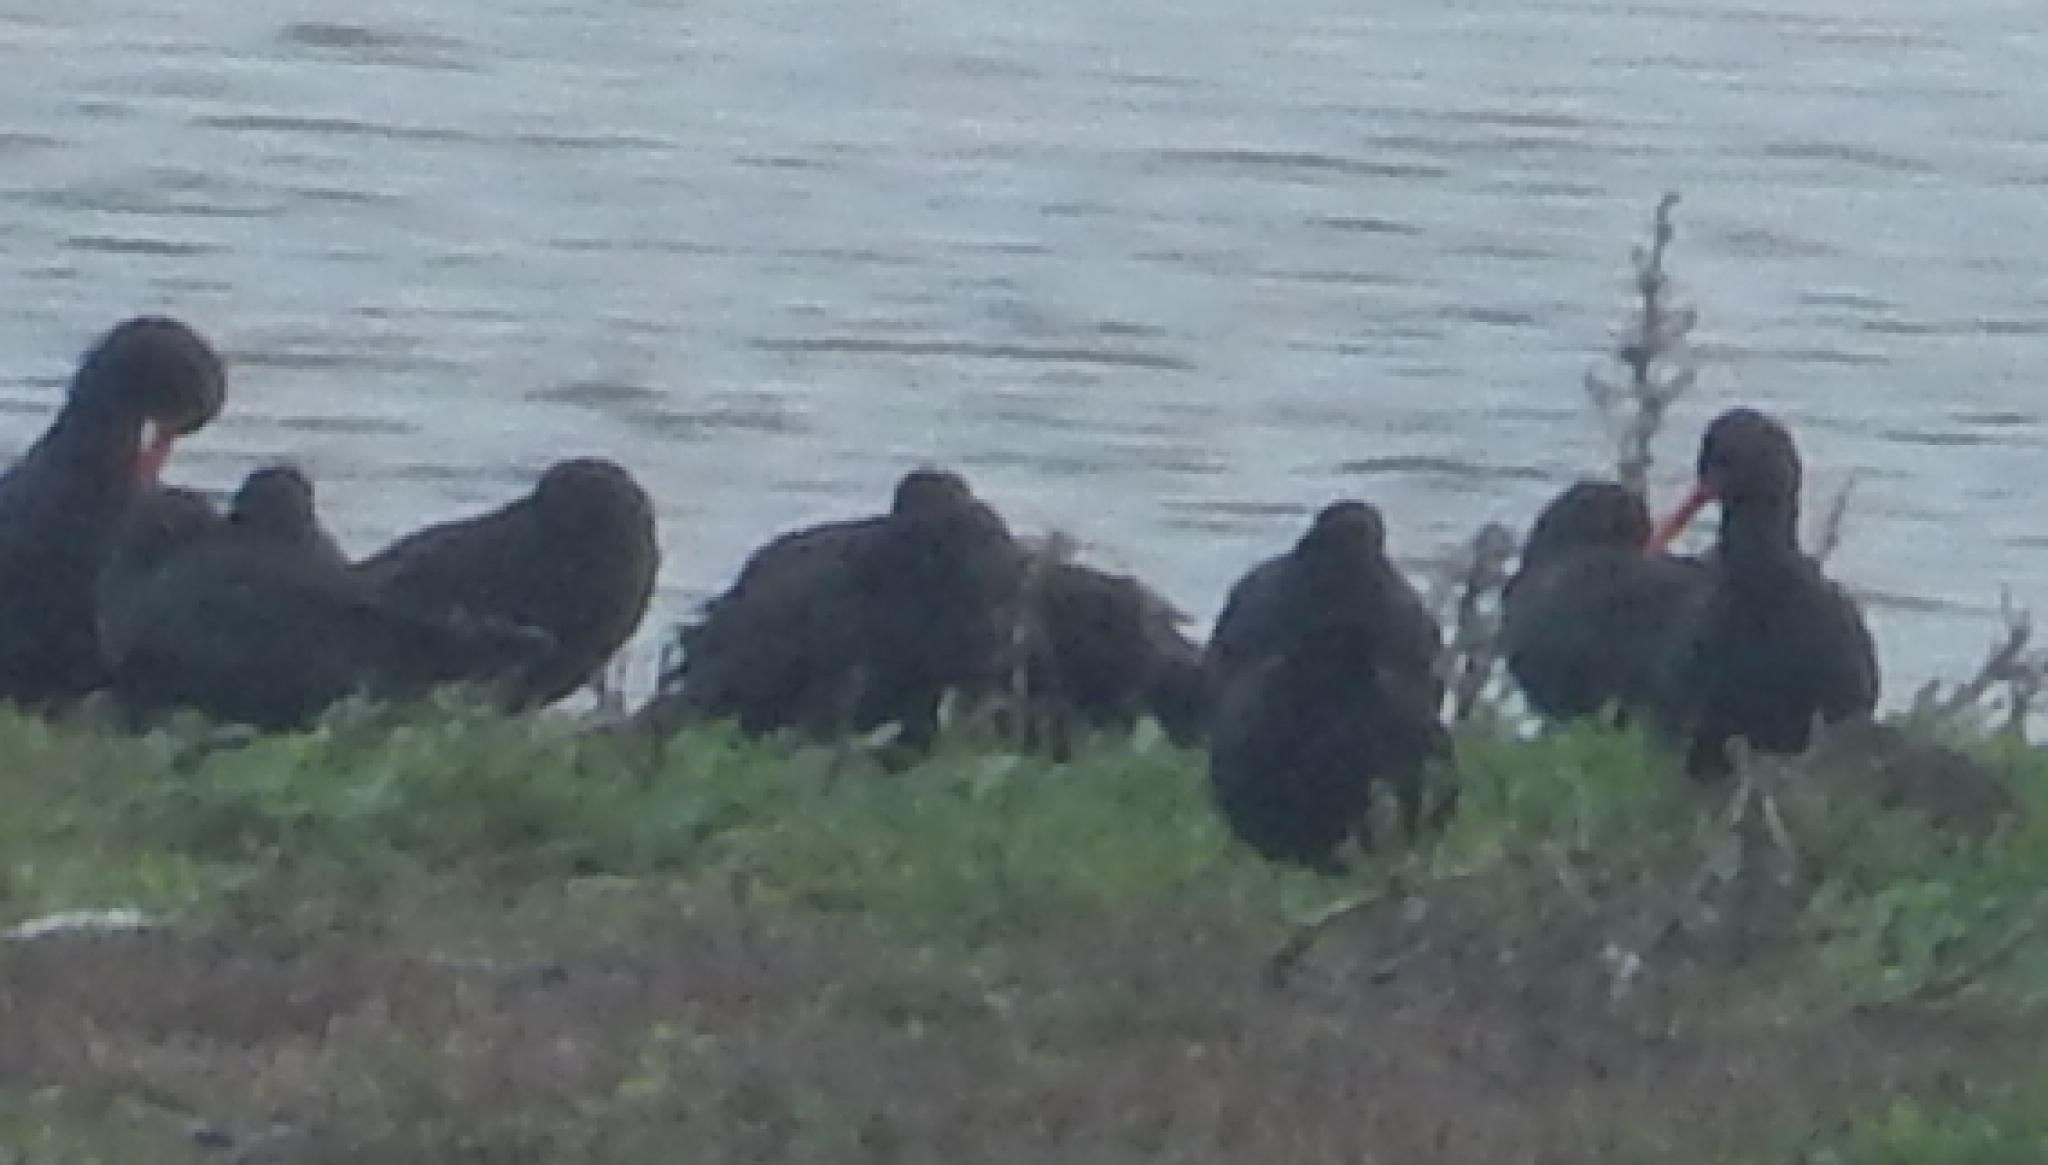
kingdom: Animalia
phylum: Chordata
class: Aves
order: Charadriiformes
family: Haematopodidae
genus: Haematopus
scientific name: Haematopus moquini
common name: African oystercatcher
